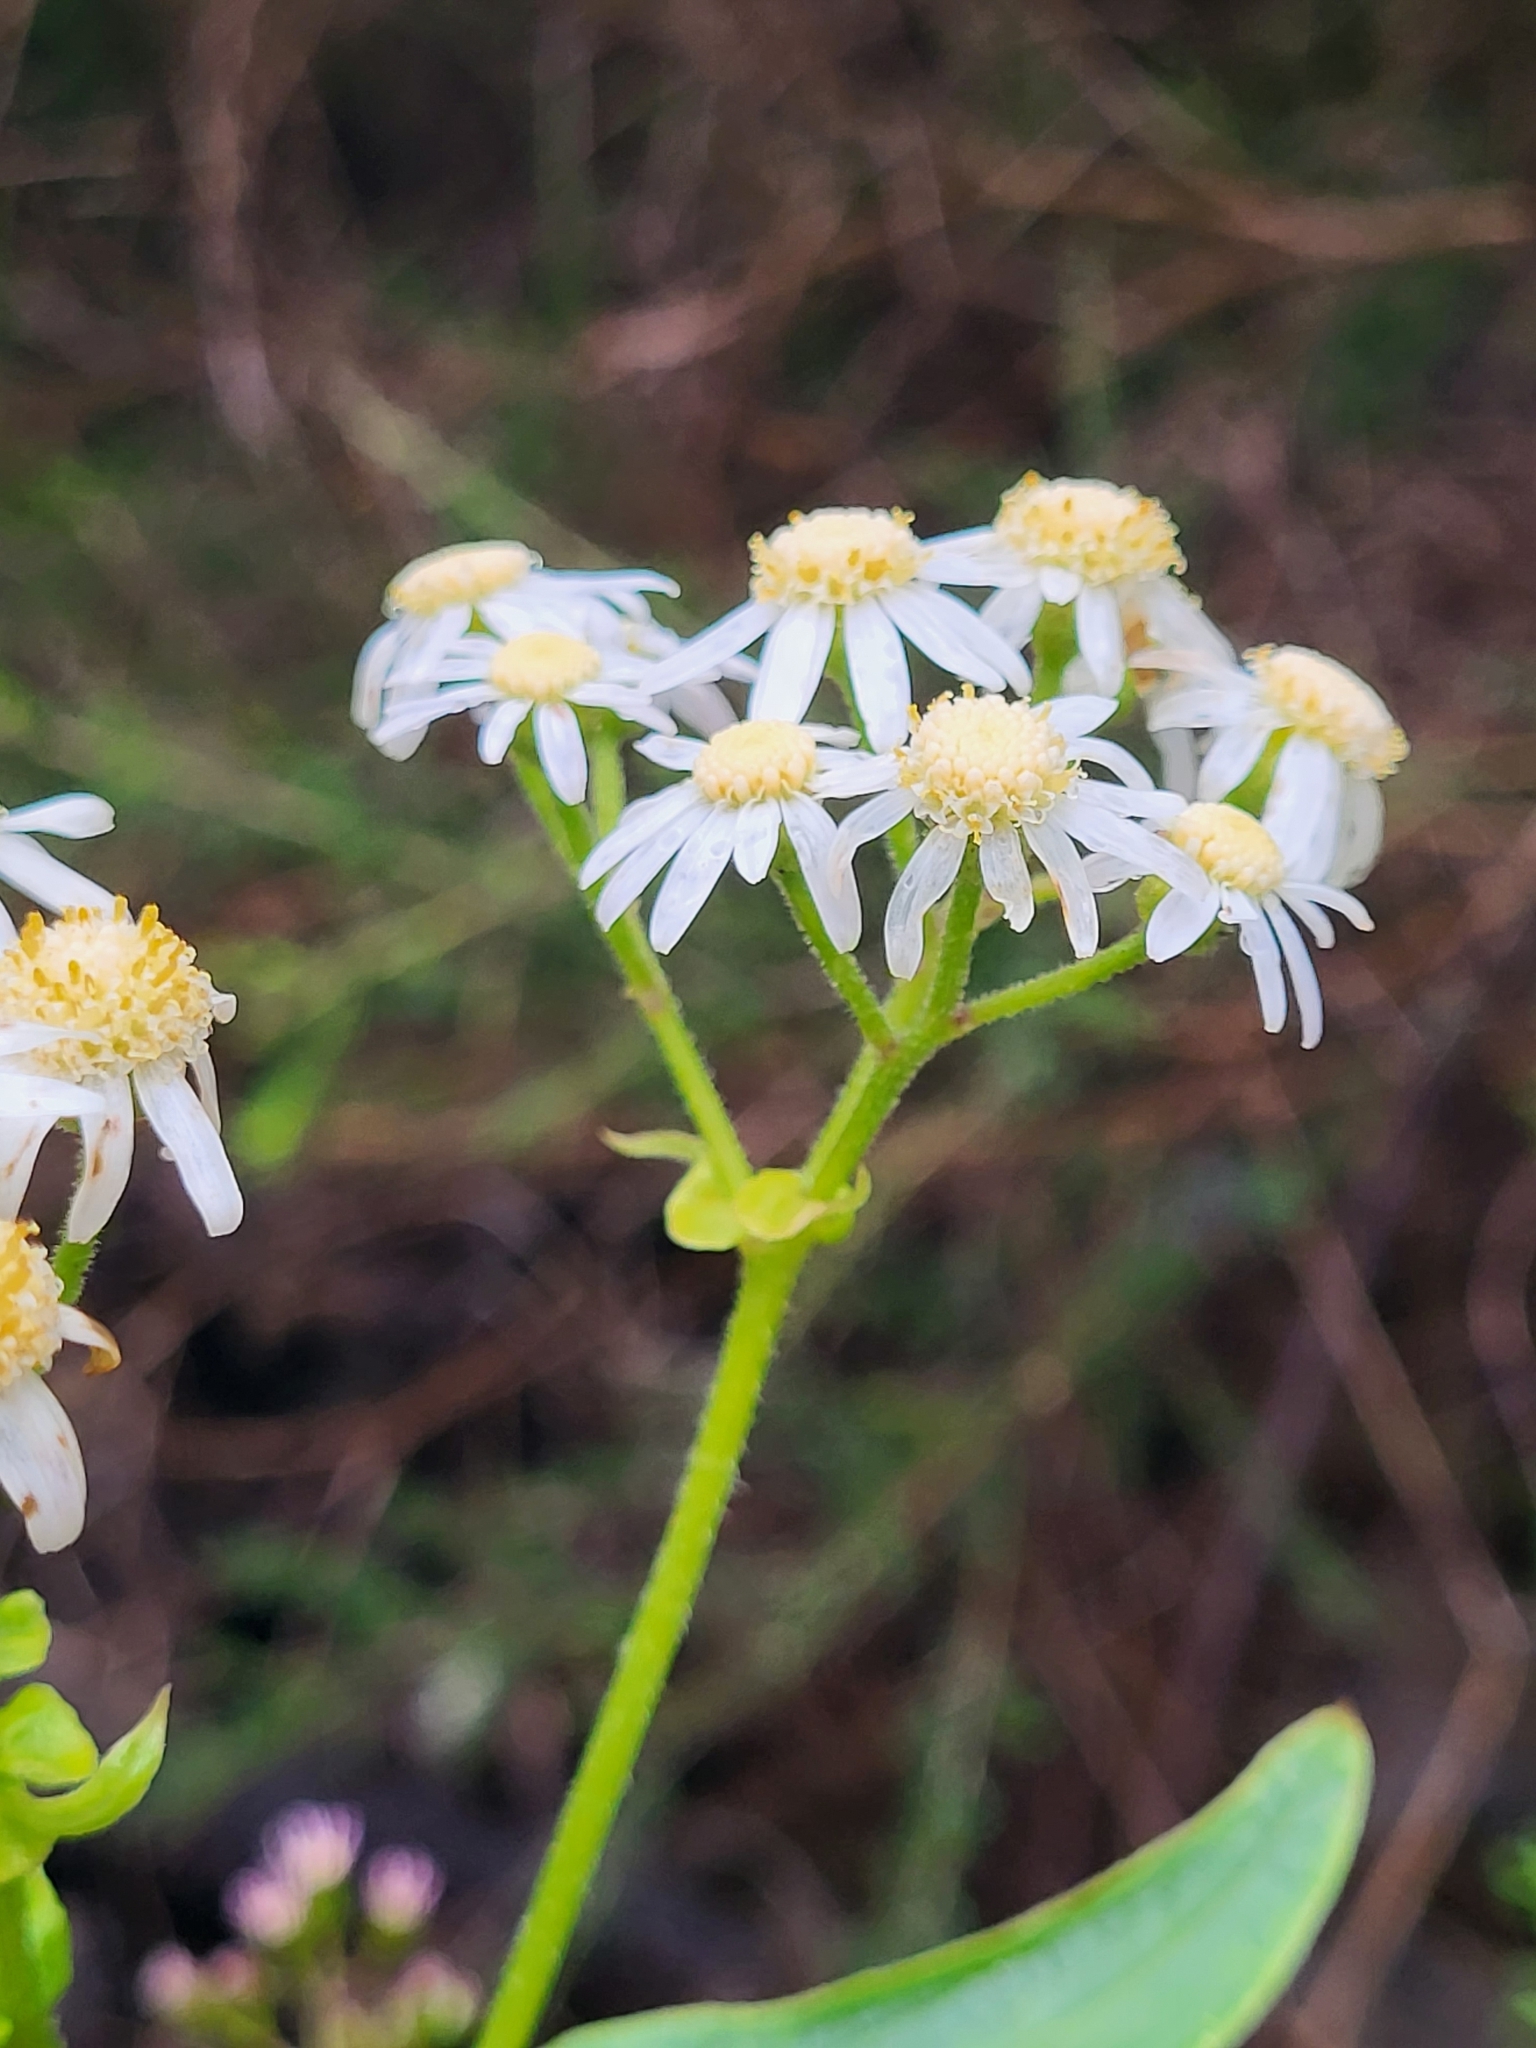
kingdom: Plantae
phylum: Tracheophyta
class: Magnoliopsida
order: Asterales
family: Asteraceae
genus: Pericallis
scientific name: Pericallis steetzii
